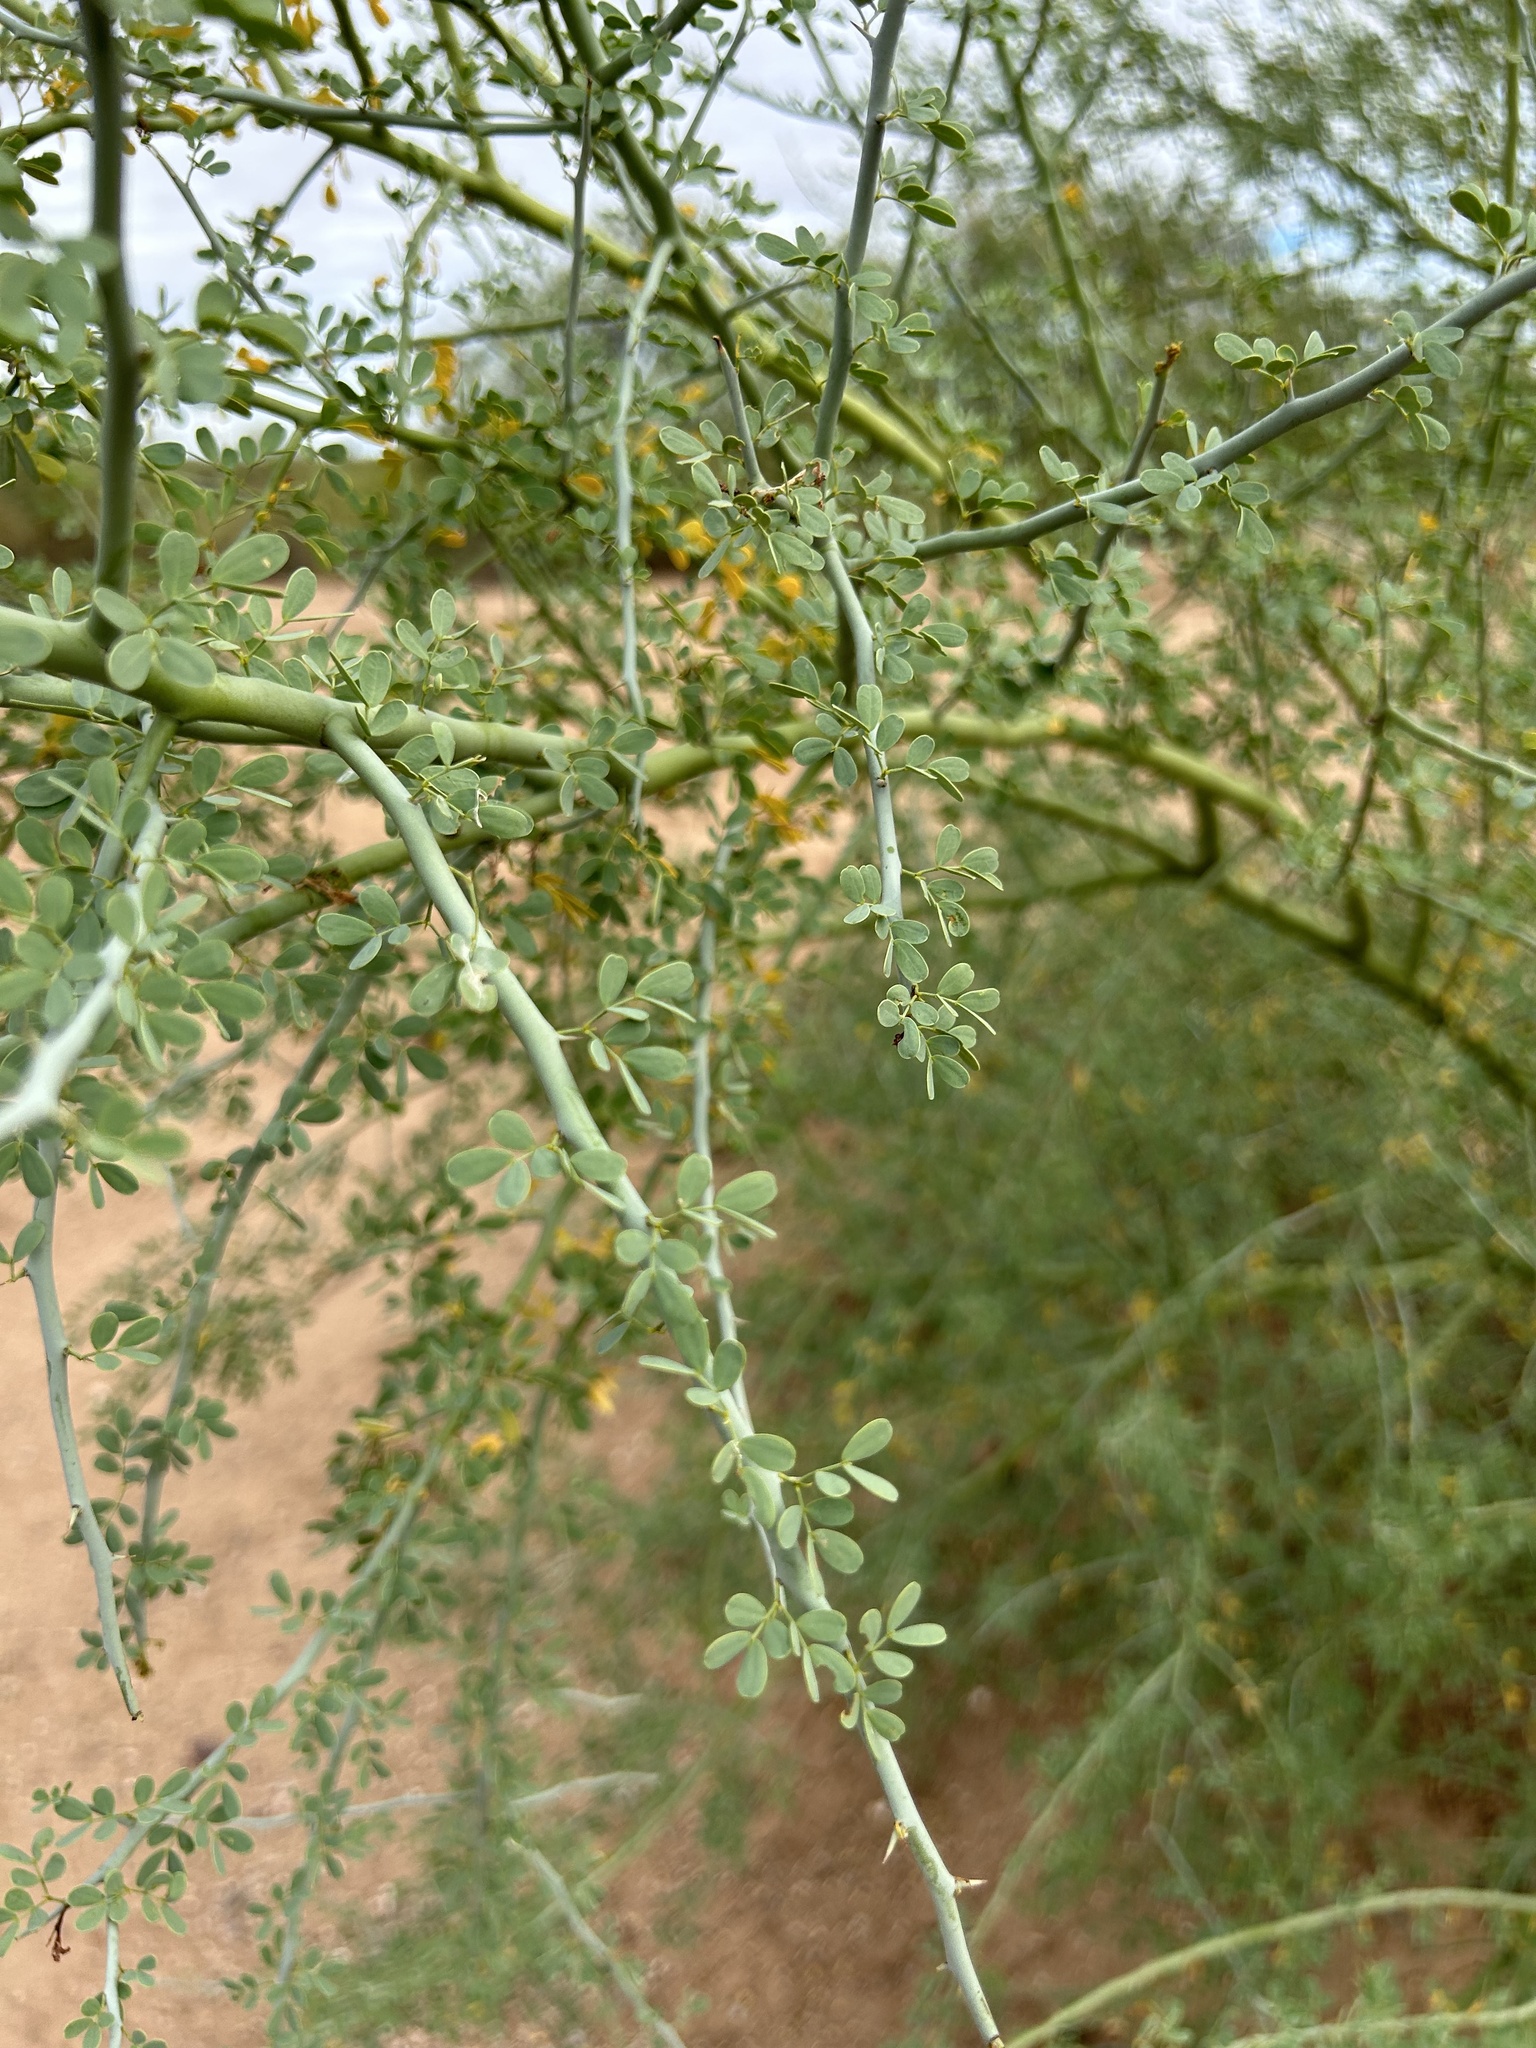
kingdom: Plantae
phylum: Tracheophyta
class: Magnoliopsida
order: Fabales
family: Fabaceae
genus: Parkinsonia
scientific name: Parkinsonia florida
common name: Blue paloverde
